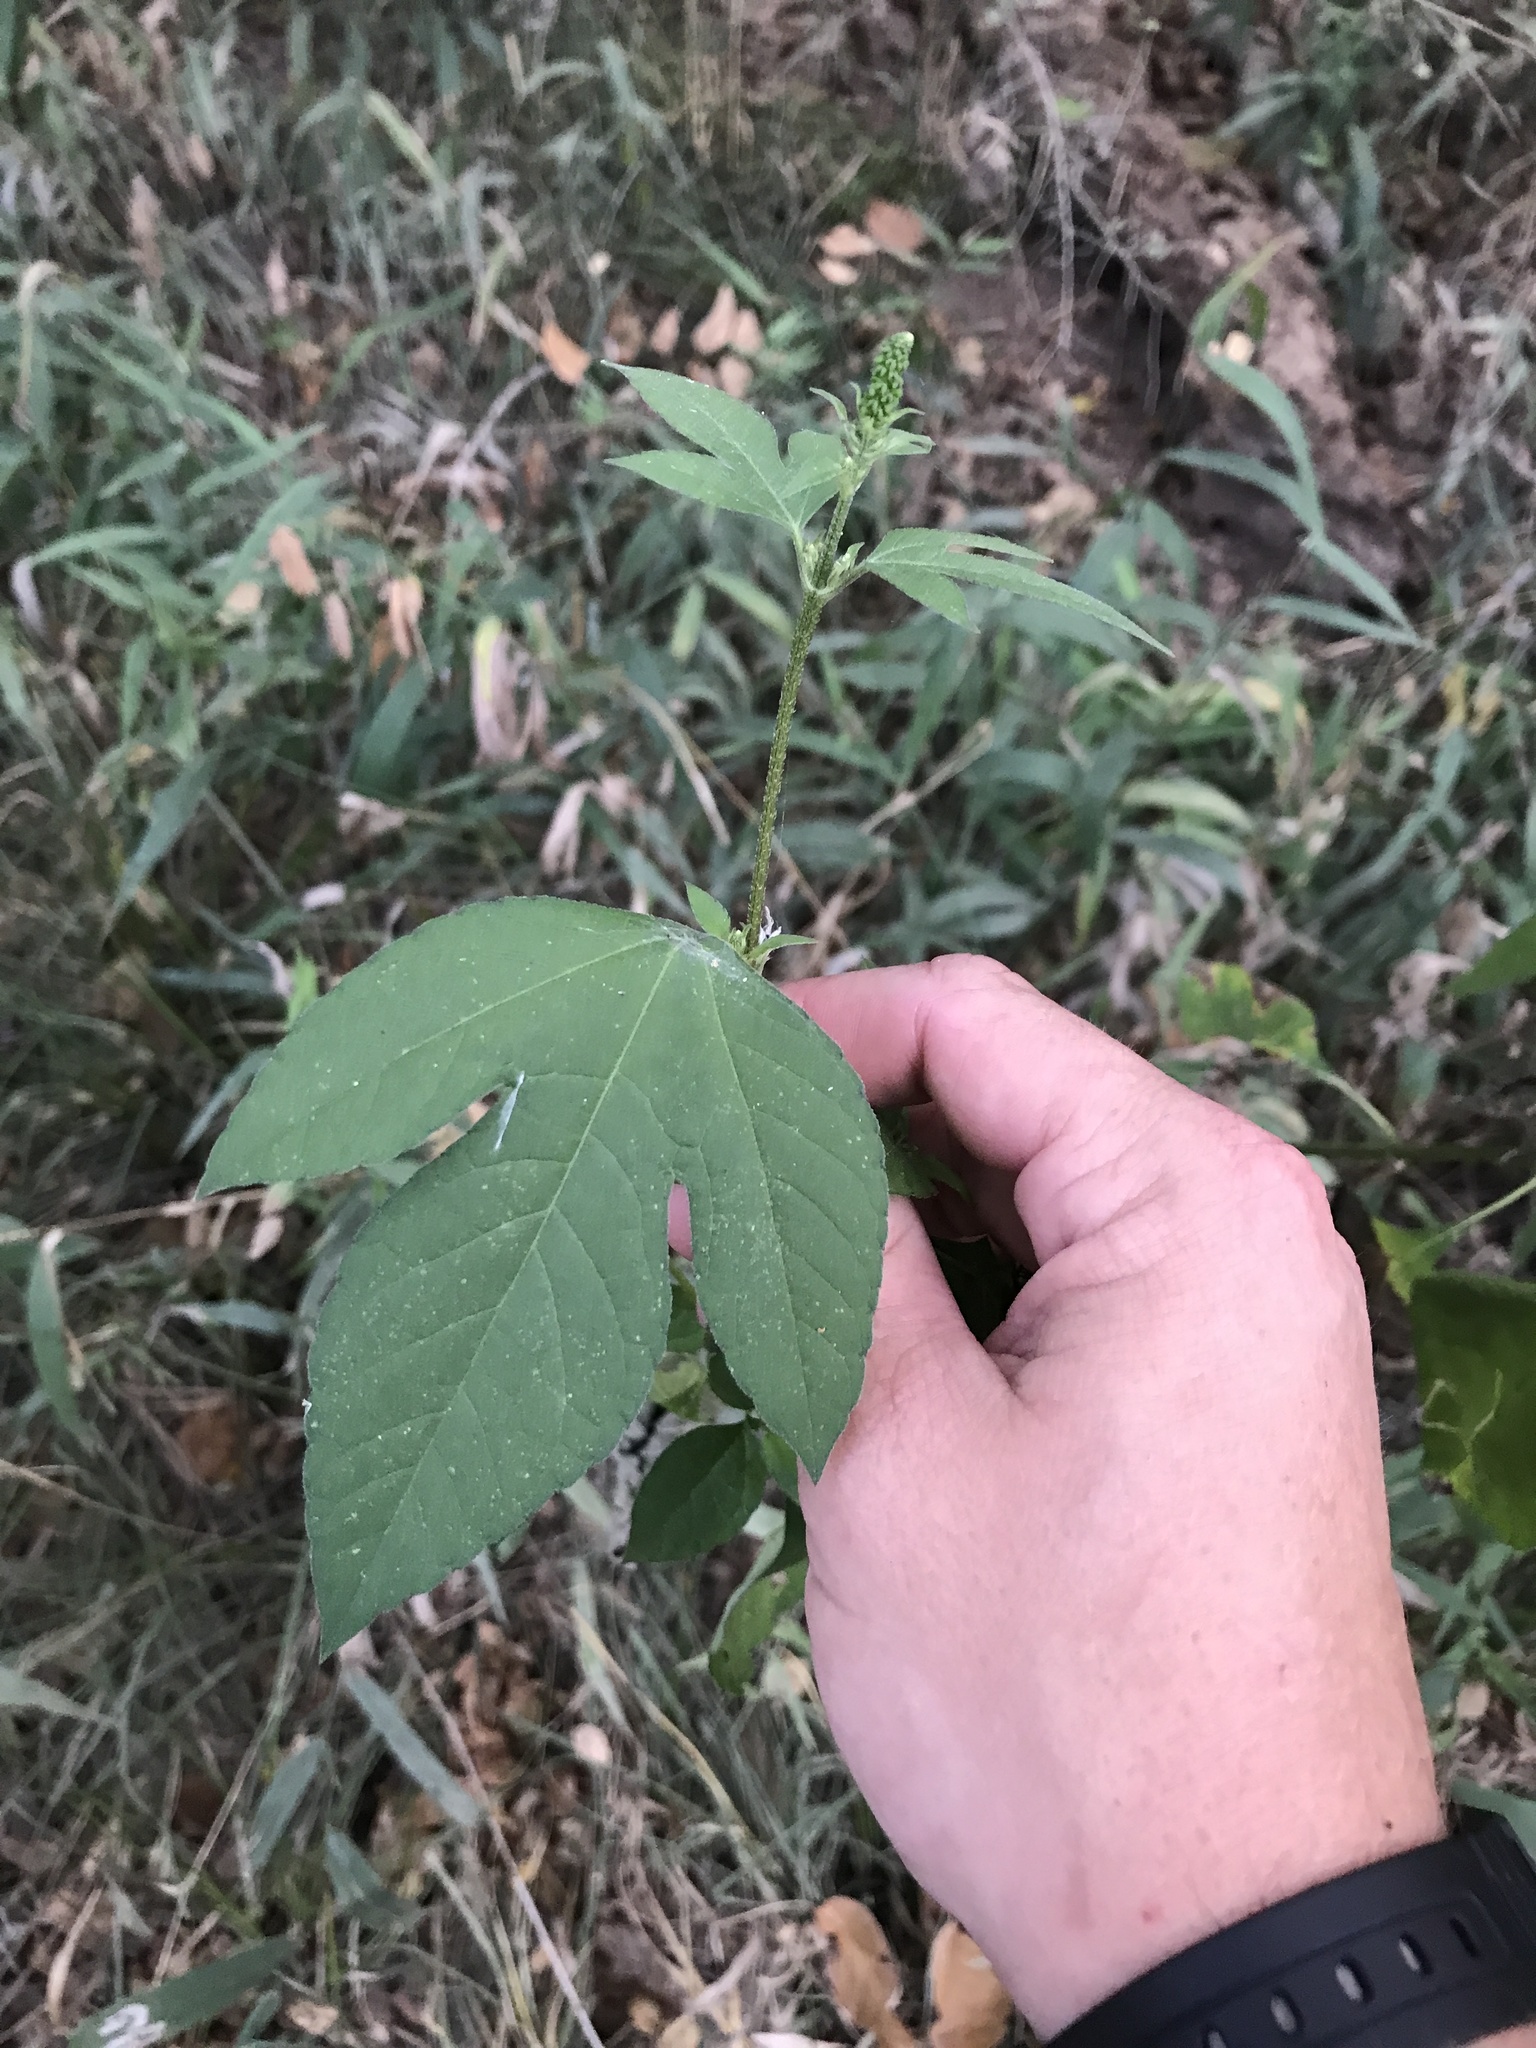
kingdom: Plantae
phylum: Tracheophyta
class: Magnoliopsida
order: Asterales
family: Asteraceae
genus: Ambrosia
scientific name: Ambrosia trifida
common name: Giant ragweed
